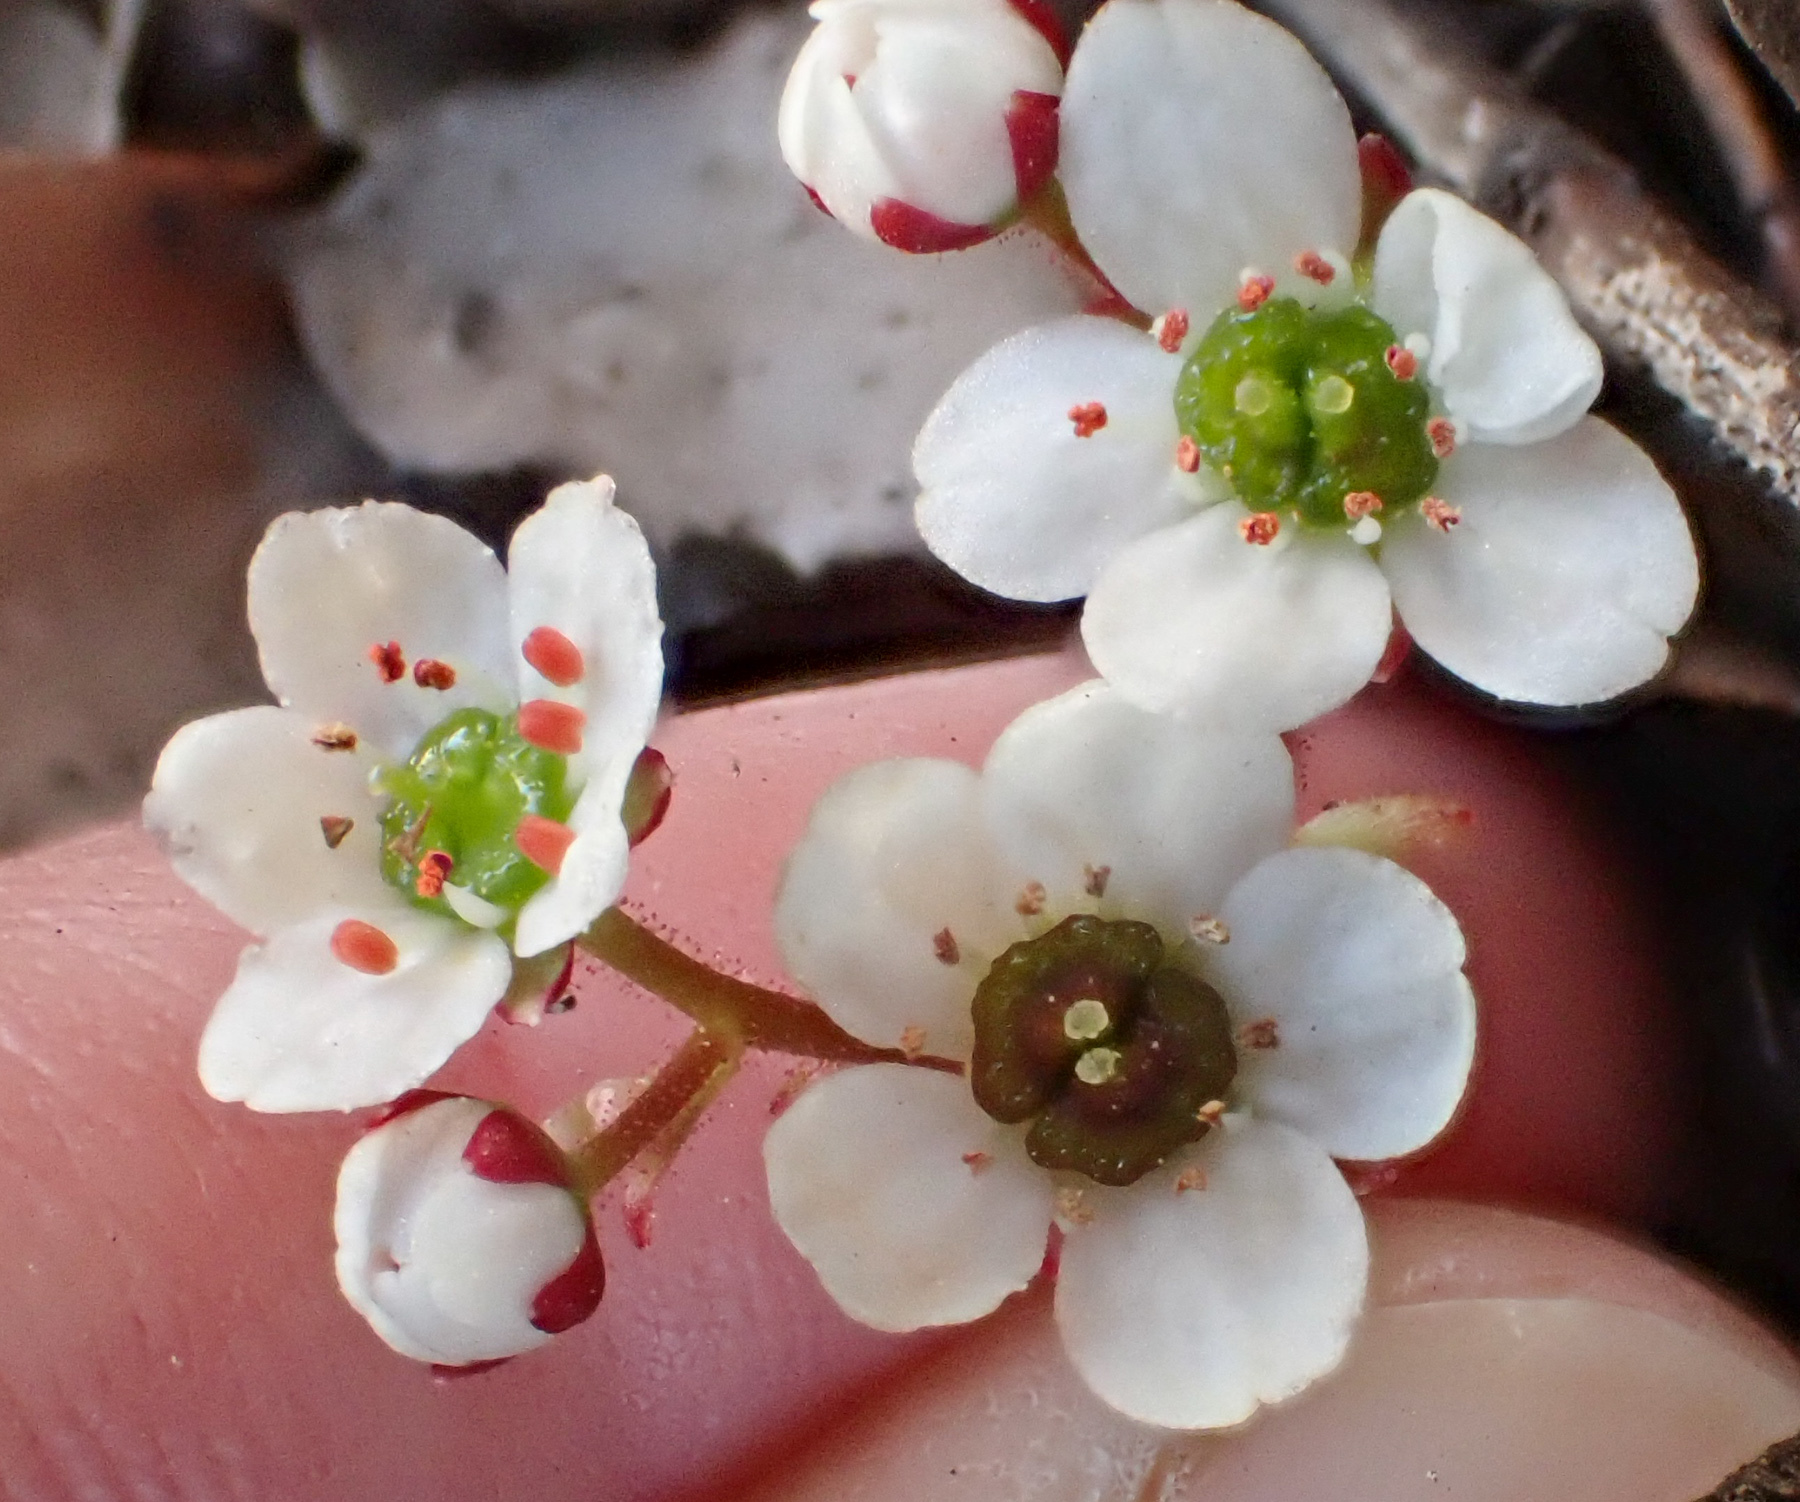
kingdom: Plantae
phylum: Tracheophyta
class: Magnoliopsida
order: Saxifragales
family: Saxifragaceae
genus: Micranthes
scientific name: Micranthes californica
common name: California saxifrage
